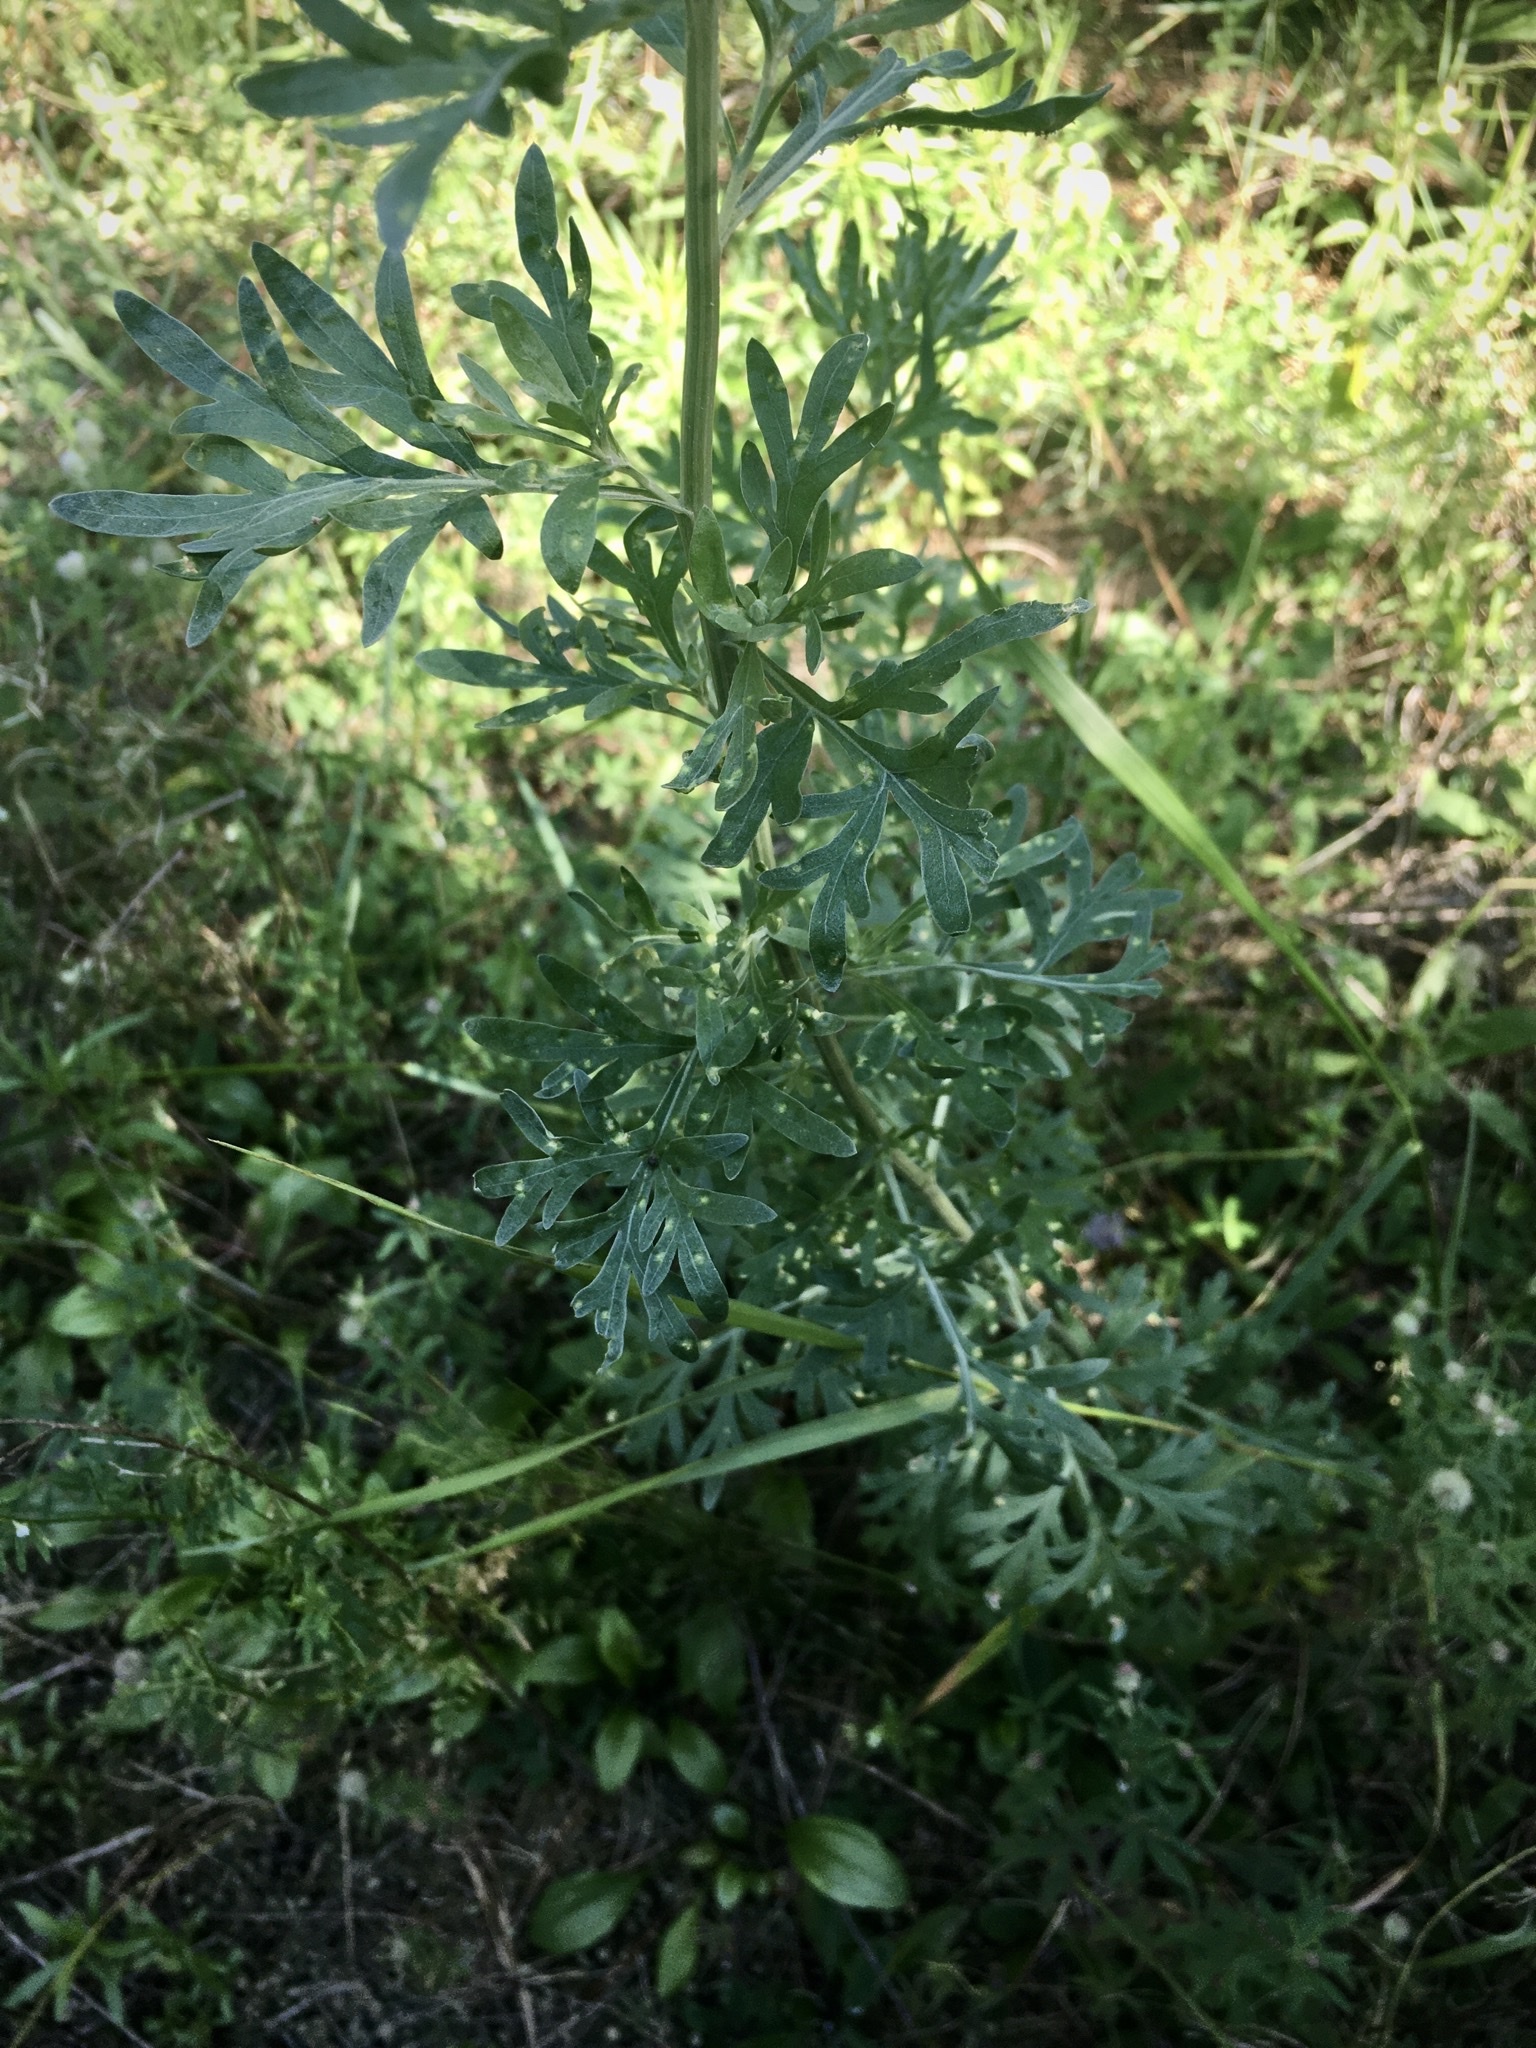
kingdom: Plantae
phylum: Tracheophyta
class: Magnoliopsida
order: Asterales
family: Asteraceae
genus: Artemisia
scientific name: Artemisia absinthium
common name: Wormwood
